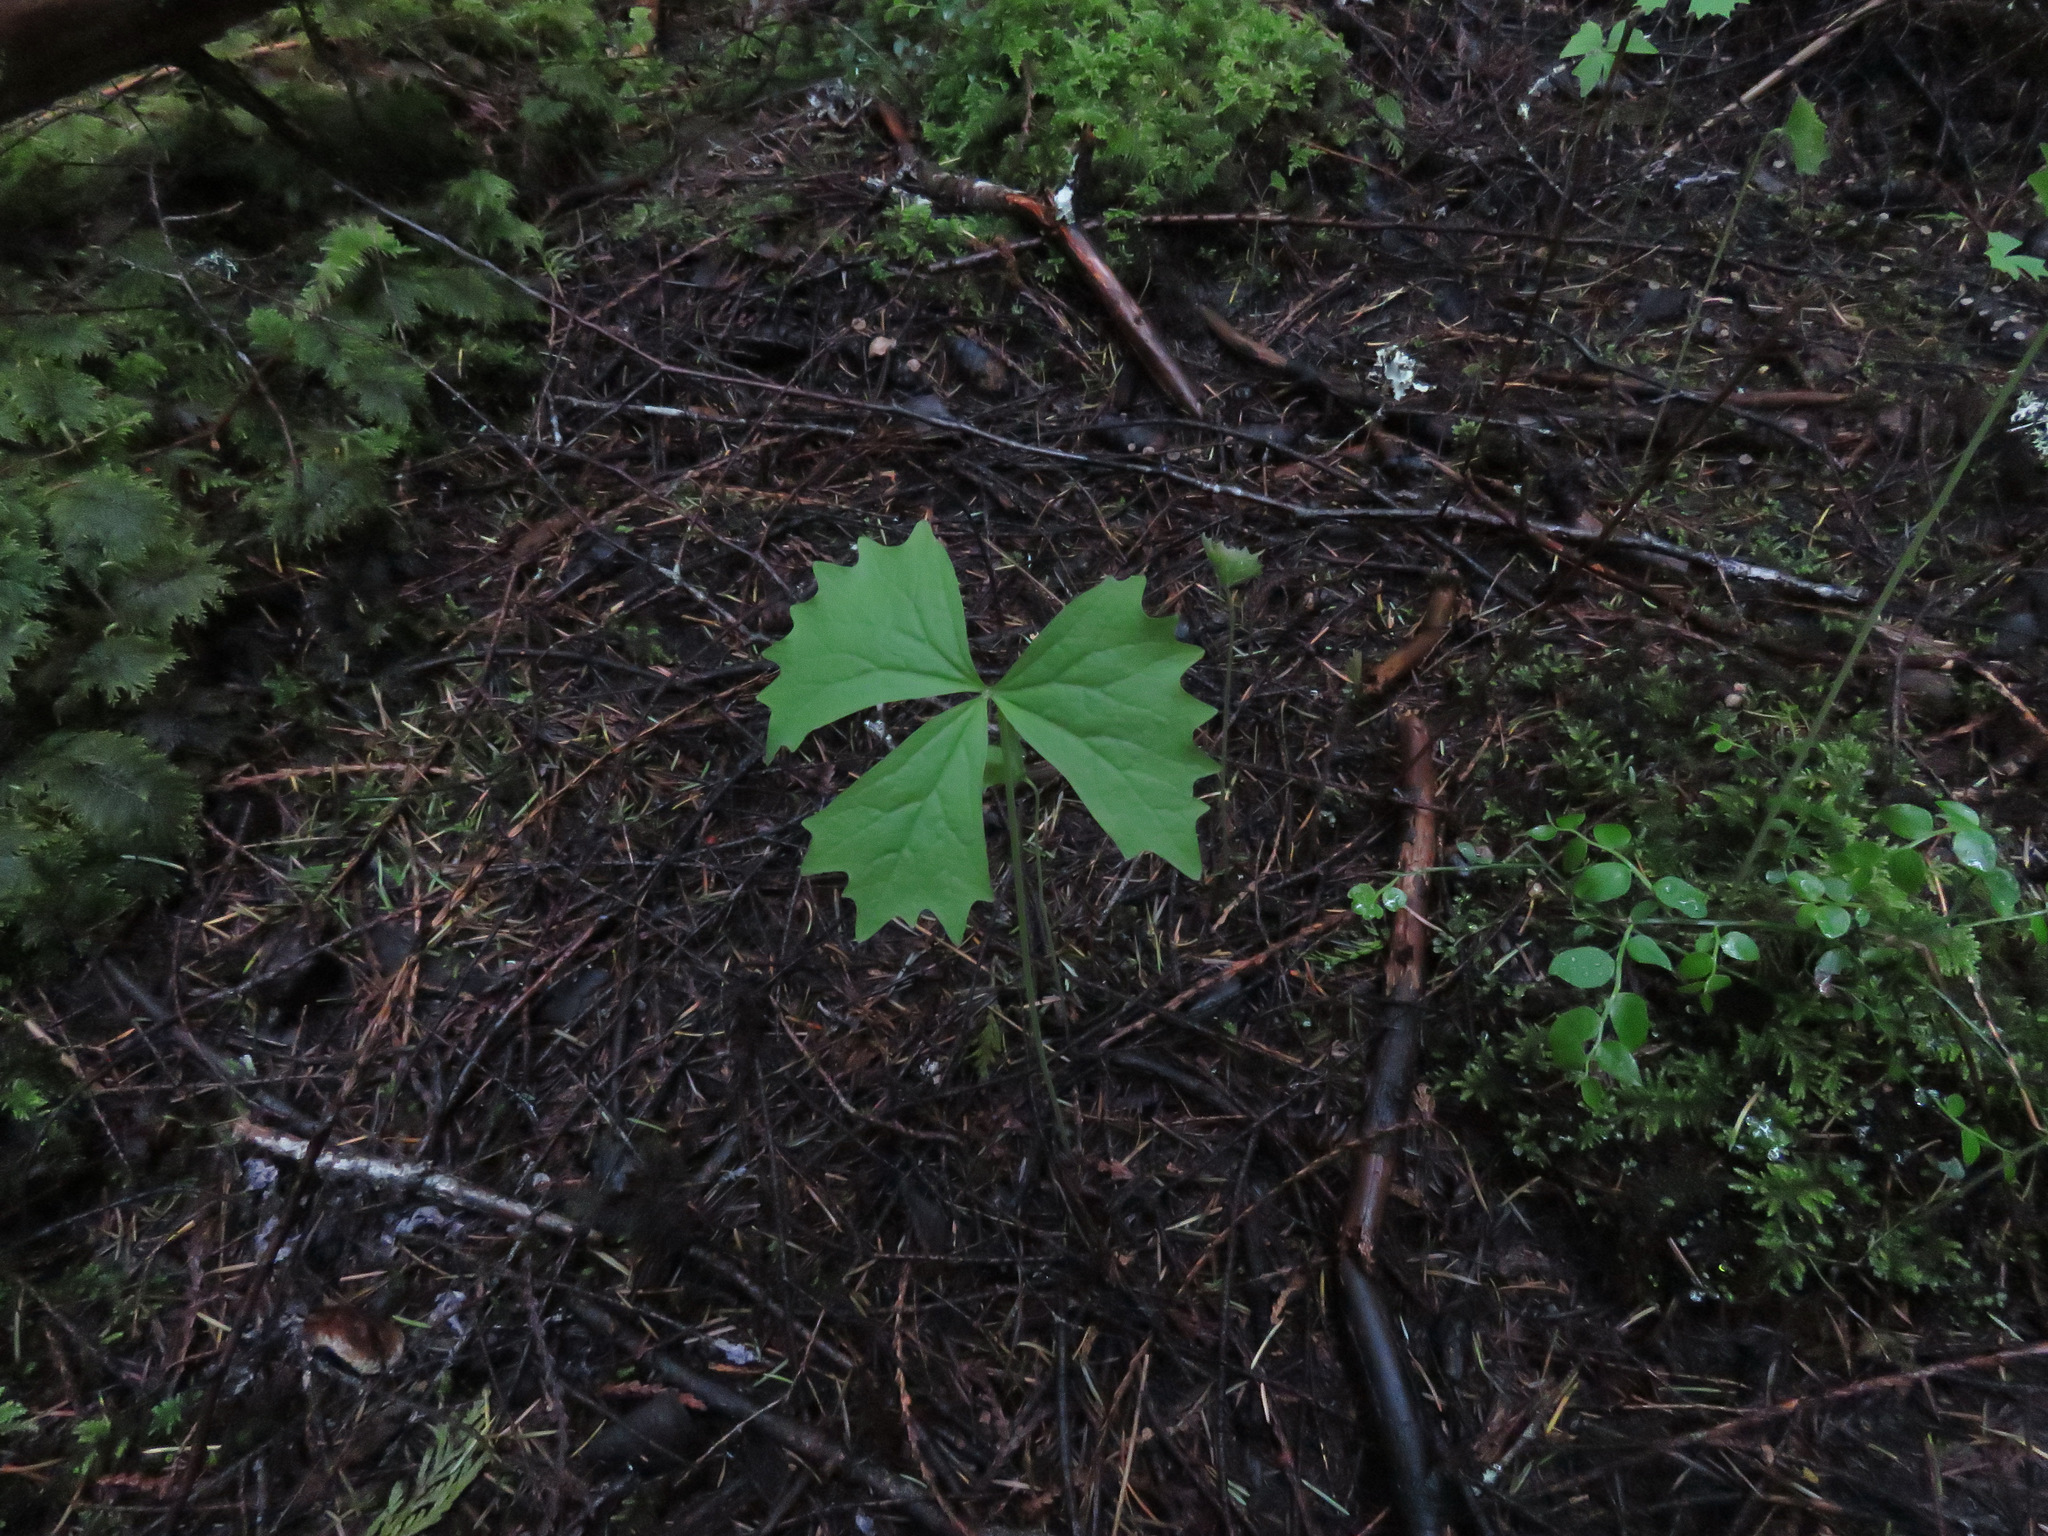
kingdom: Plantae
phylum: Tracheophyta
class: Magnoliopsida
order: Ranunculales
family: Berberidaceae
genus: Achlys
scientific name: Achlys triphylla
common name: Vanilla-leaf
